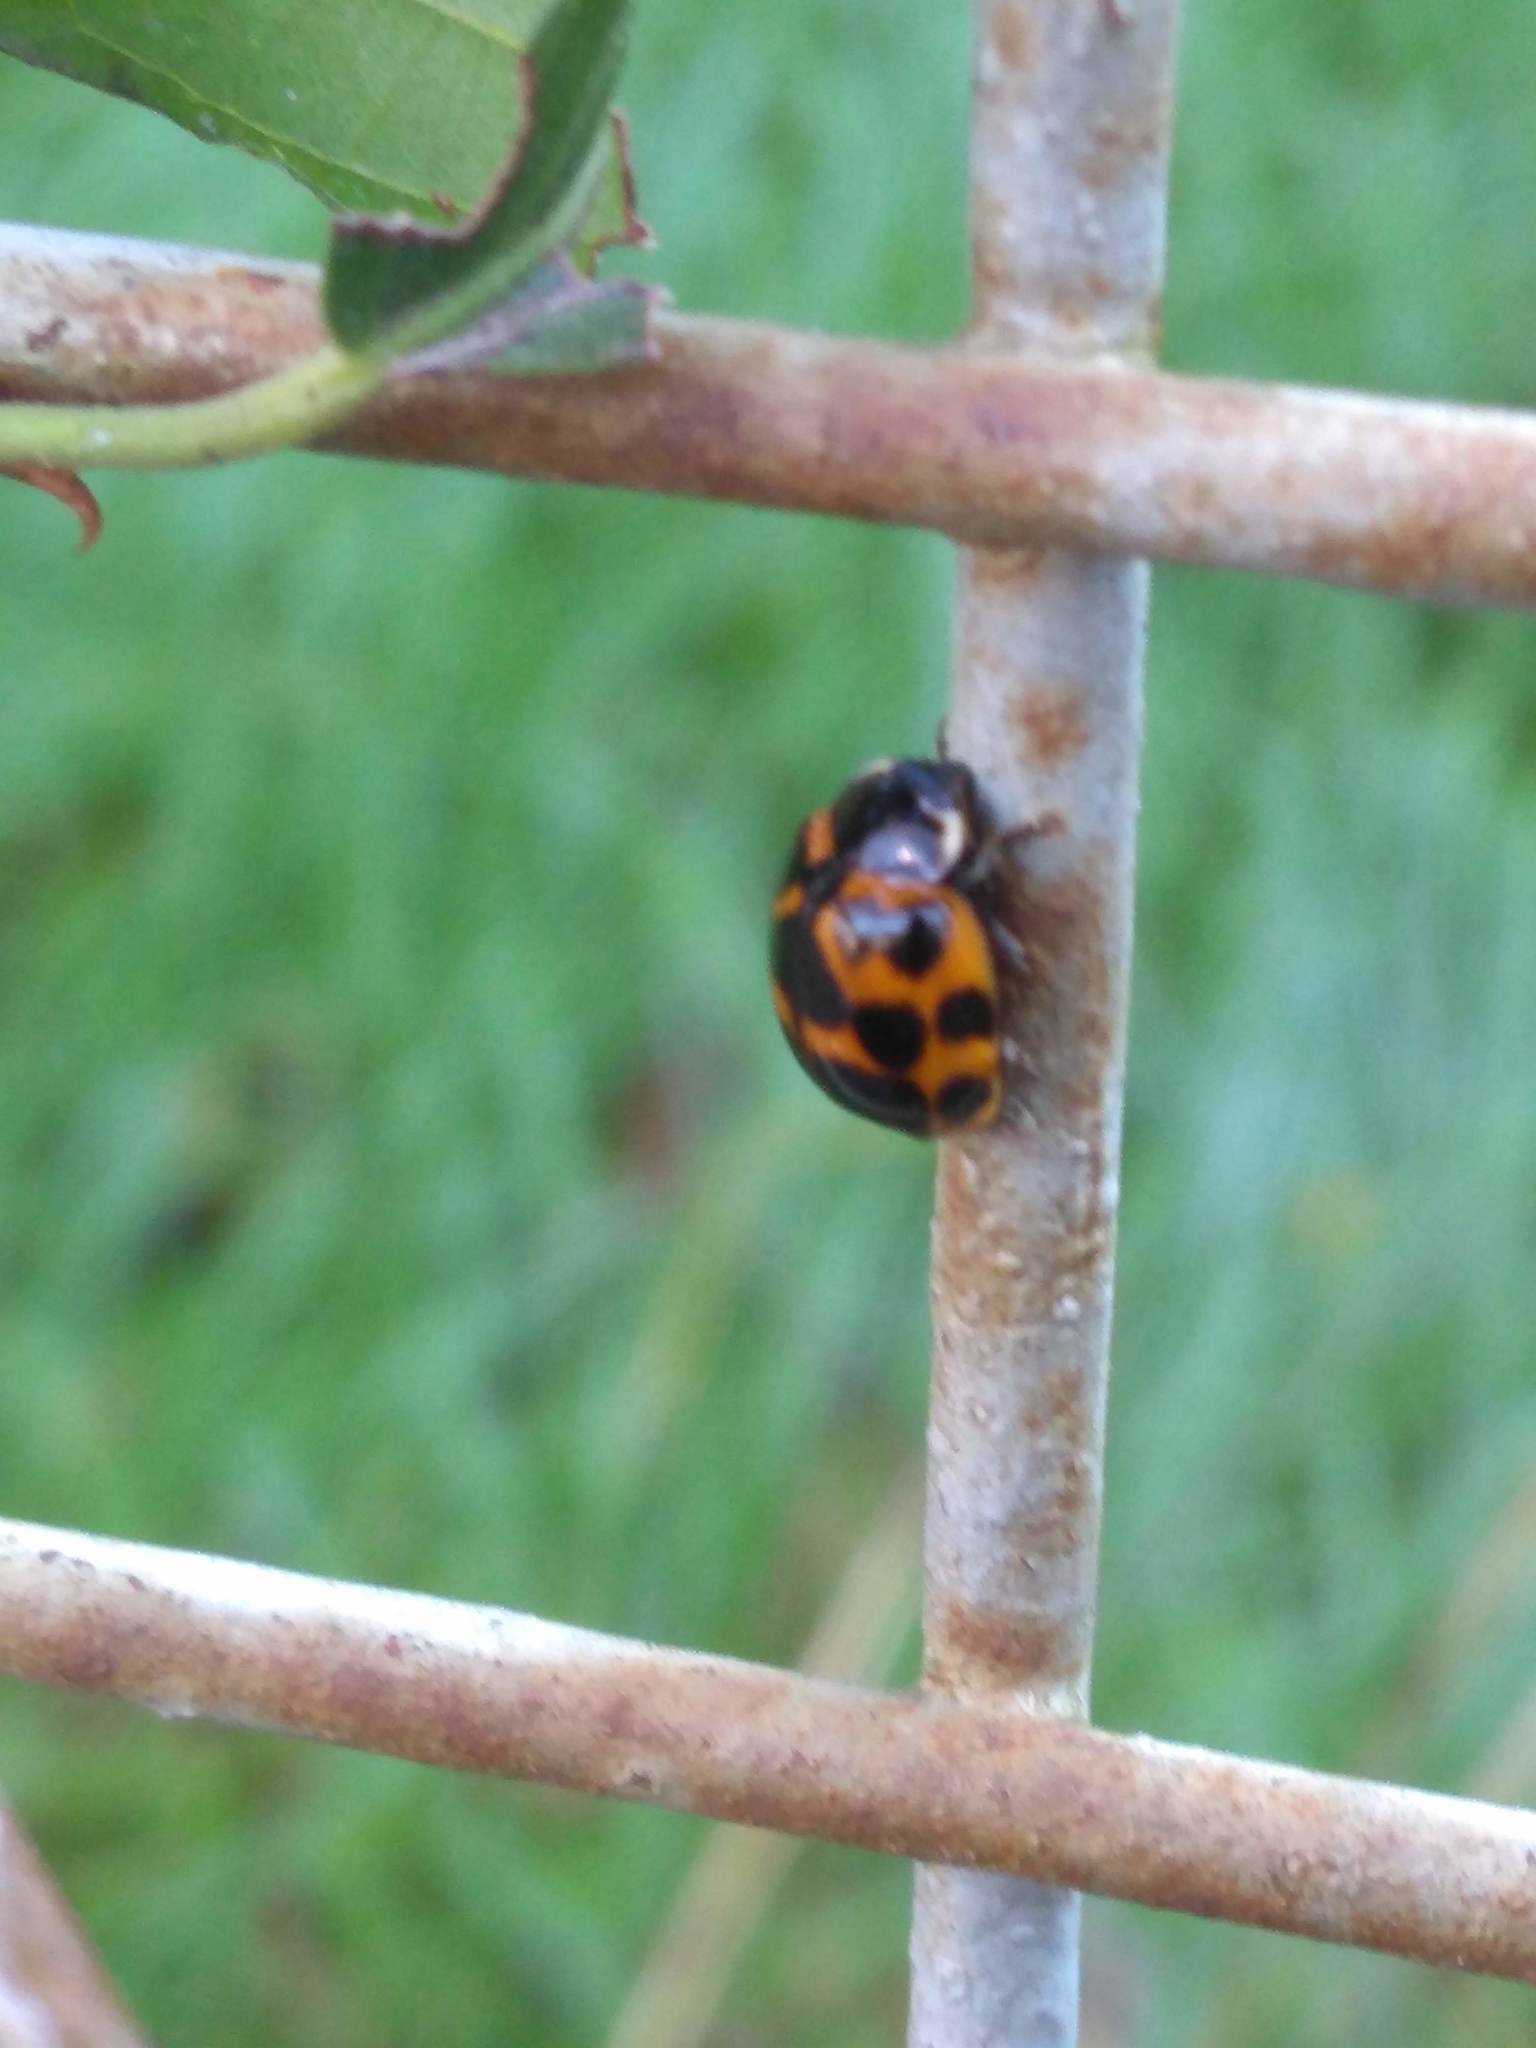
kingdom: Animalia
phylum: Arthropoda
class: Insecta
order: Coleoptera
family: Coccinellidae
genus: Harmonia
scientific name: Harmonia axyridis
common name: Harlequin ladybird
